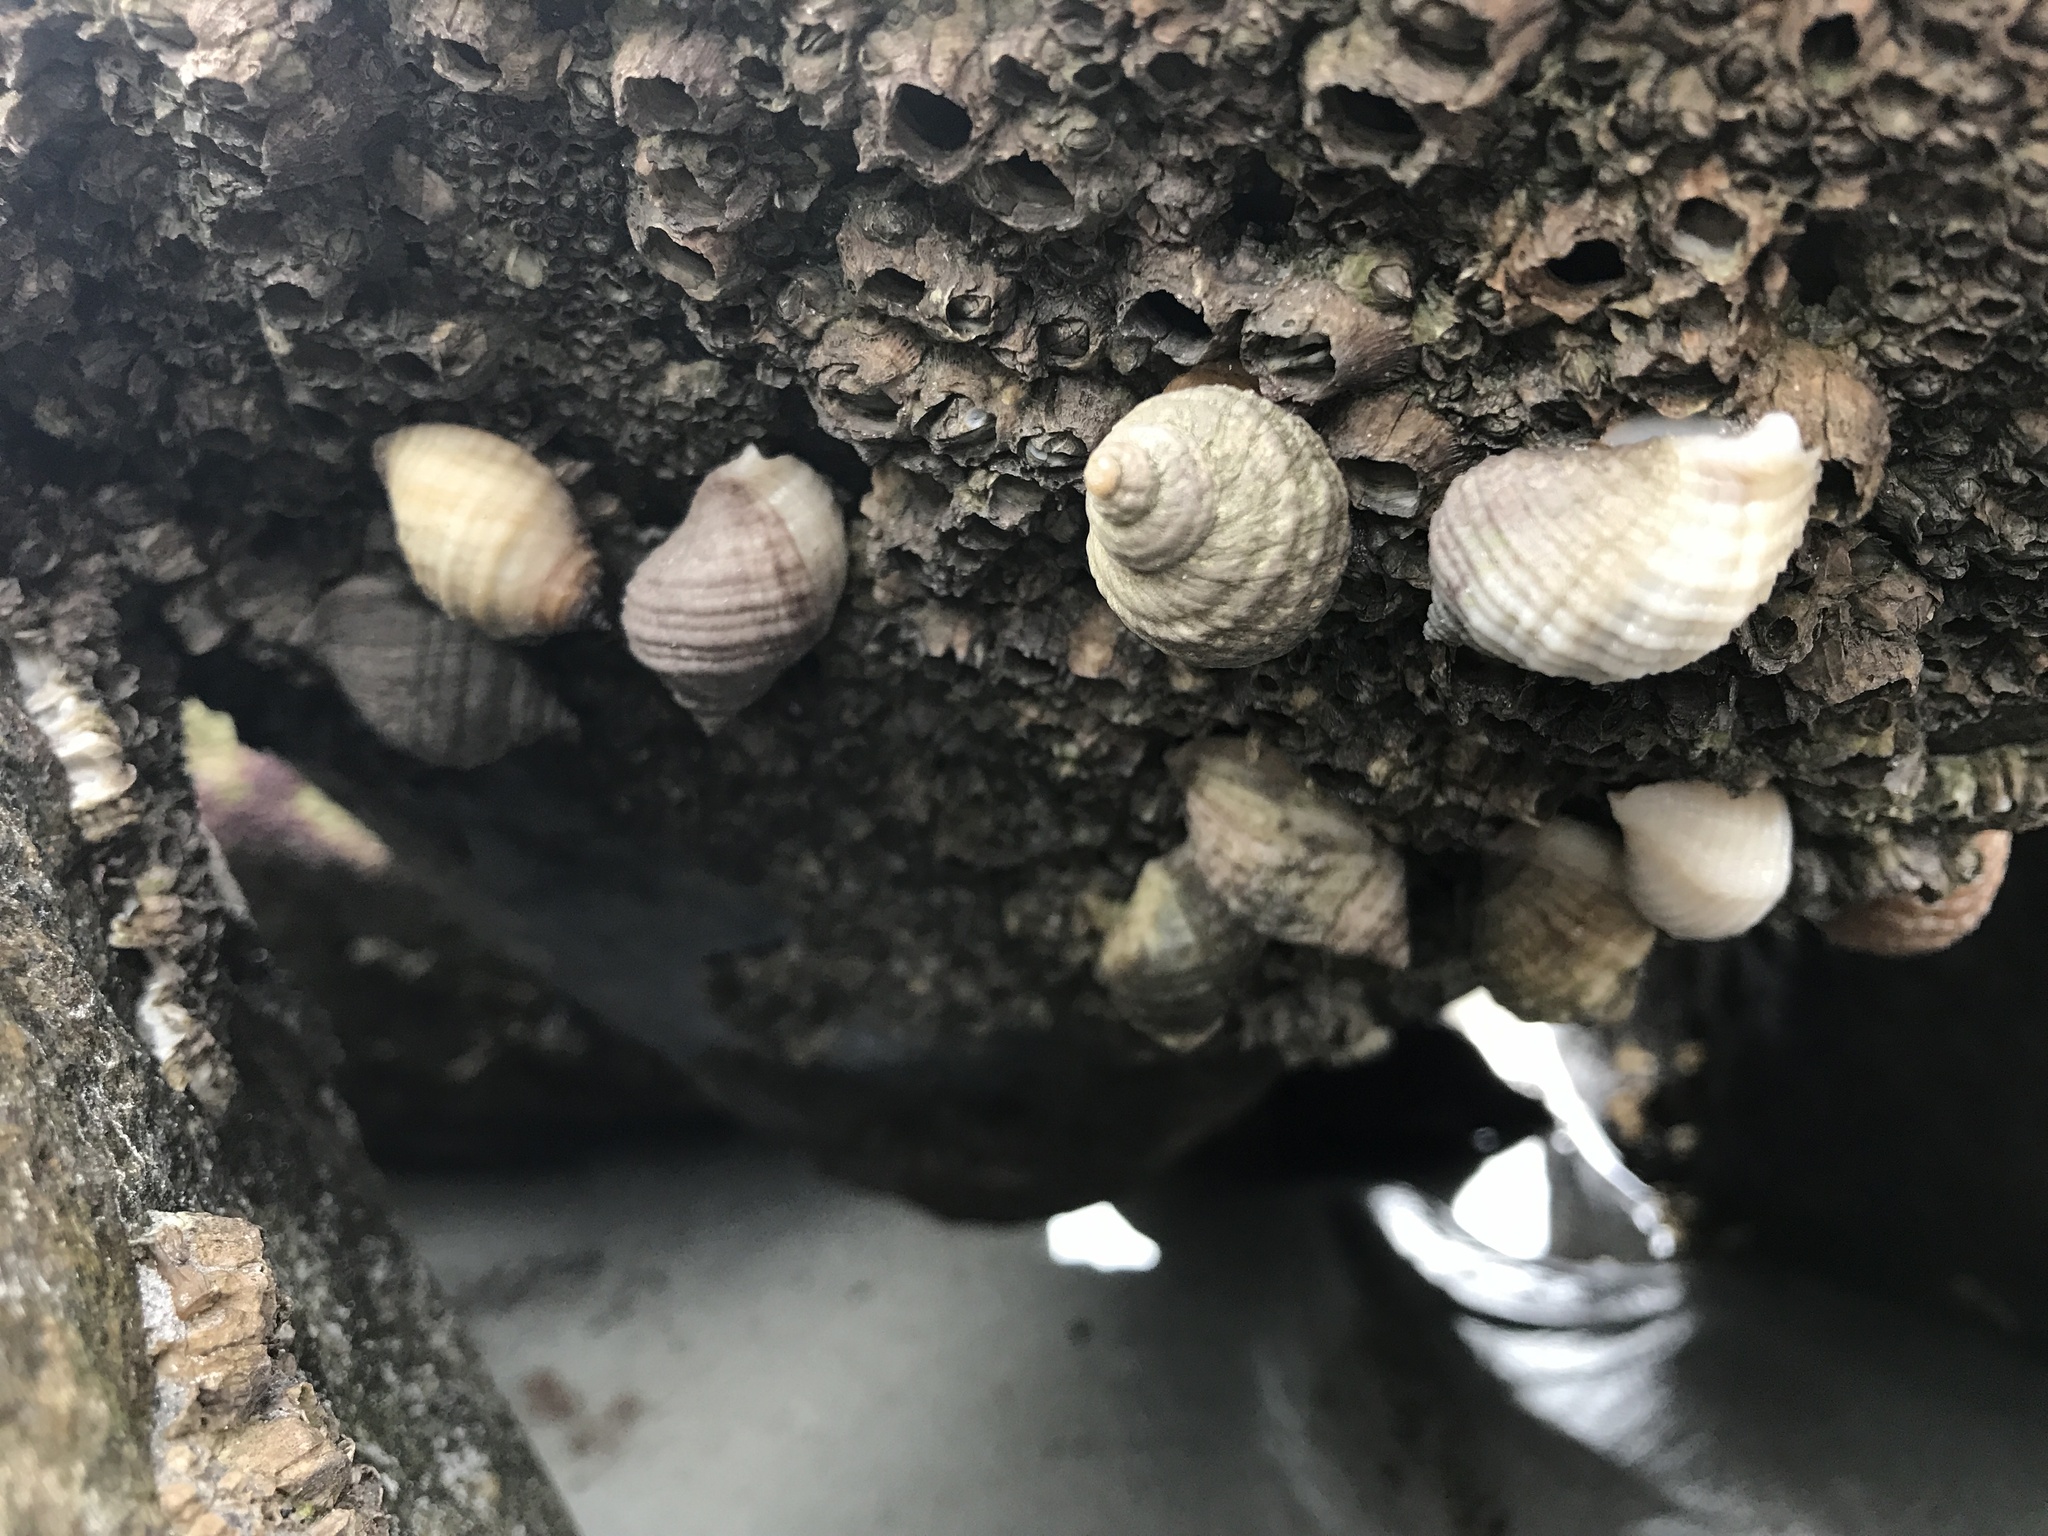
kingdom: Animalia
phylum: Mollusca
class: Gastropoda
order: Neogastropoda
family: Muricidae
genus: Nucella
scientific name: Nucella lapillus
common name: Dog whelk
